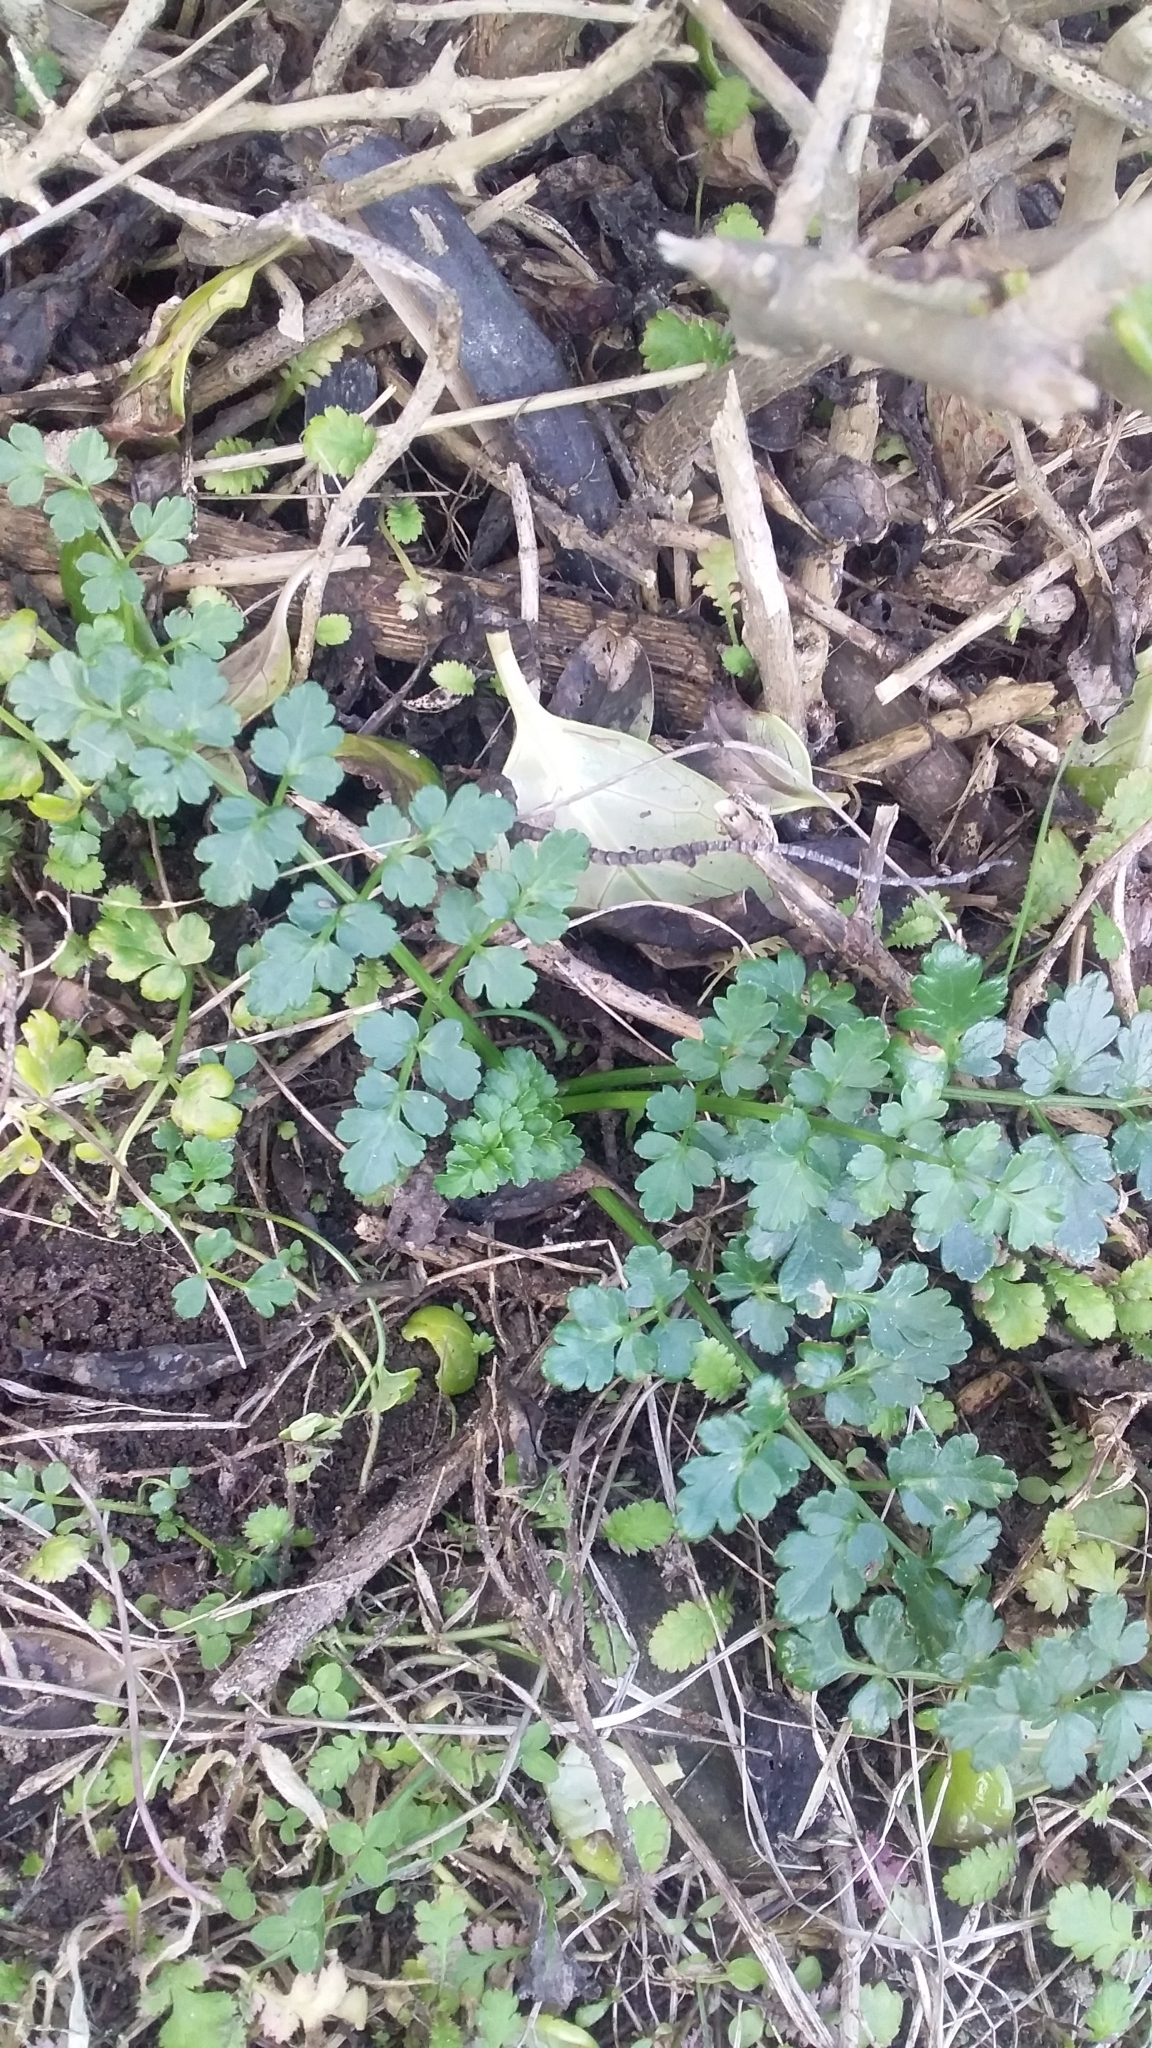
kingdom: Plantae
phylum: Tracheophyta
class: Magnoliopsida
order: Apiales
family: Apiaceae
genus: Apium
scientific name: Apium prostratum
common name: Prostrate marshwort
